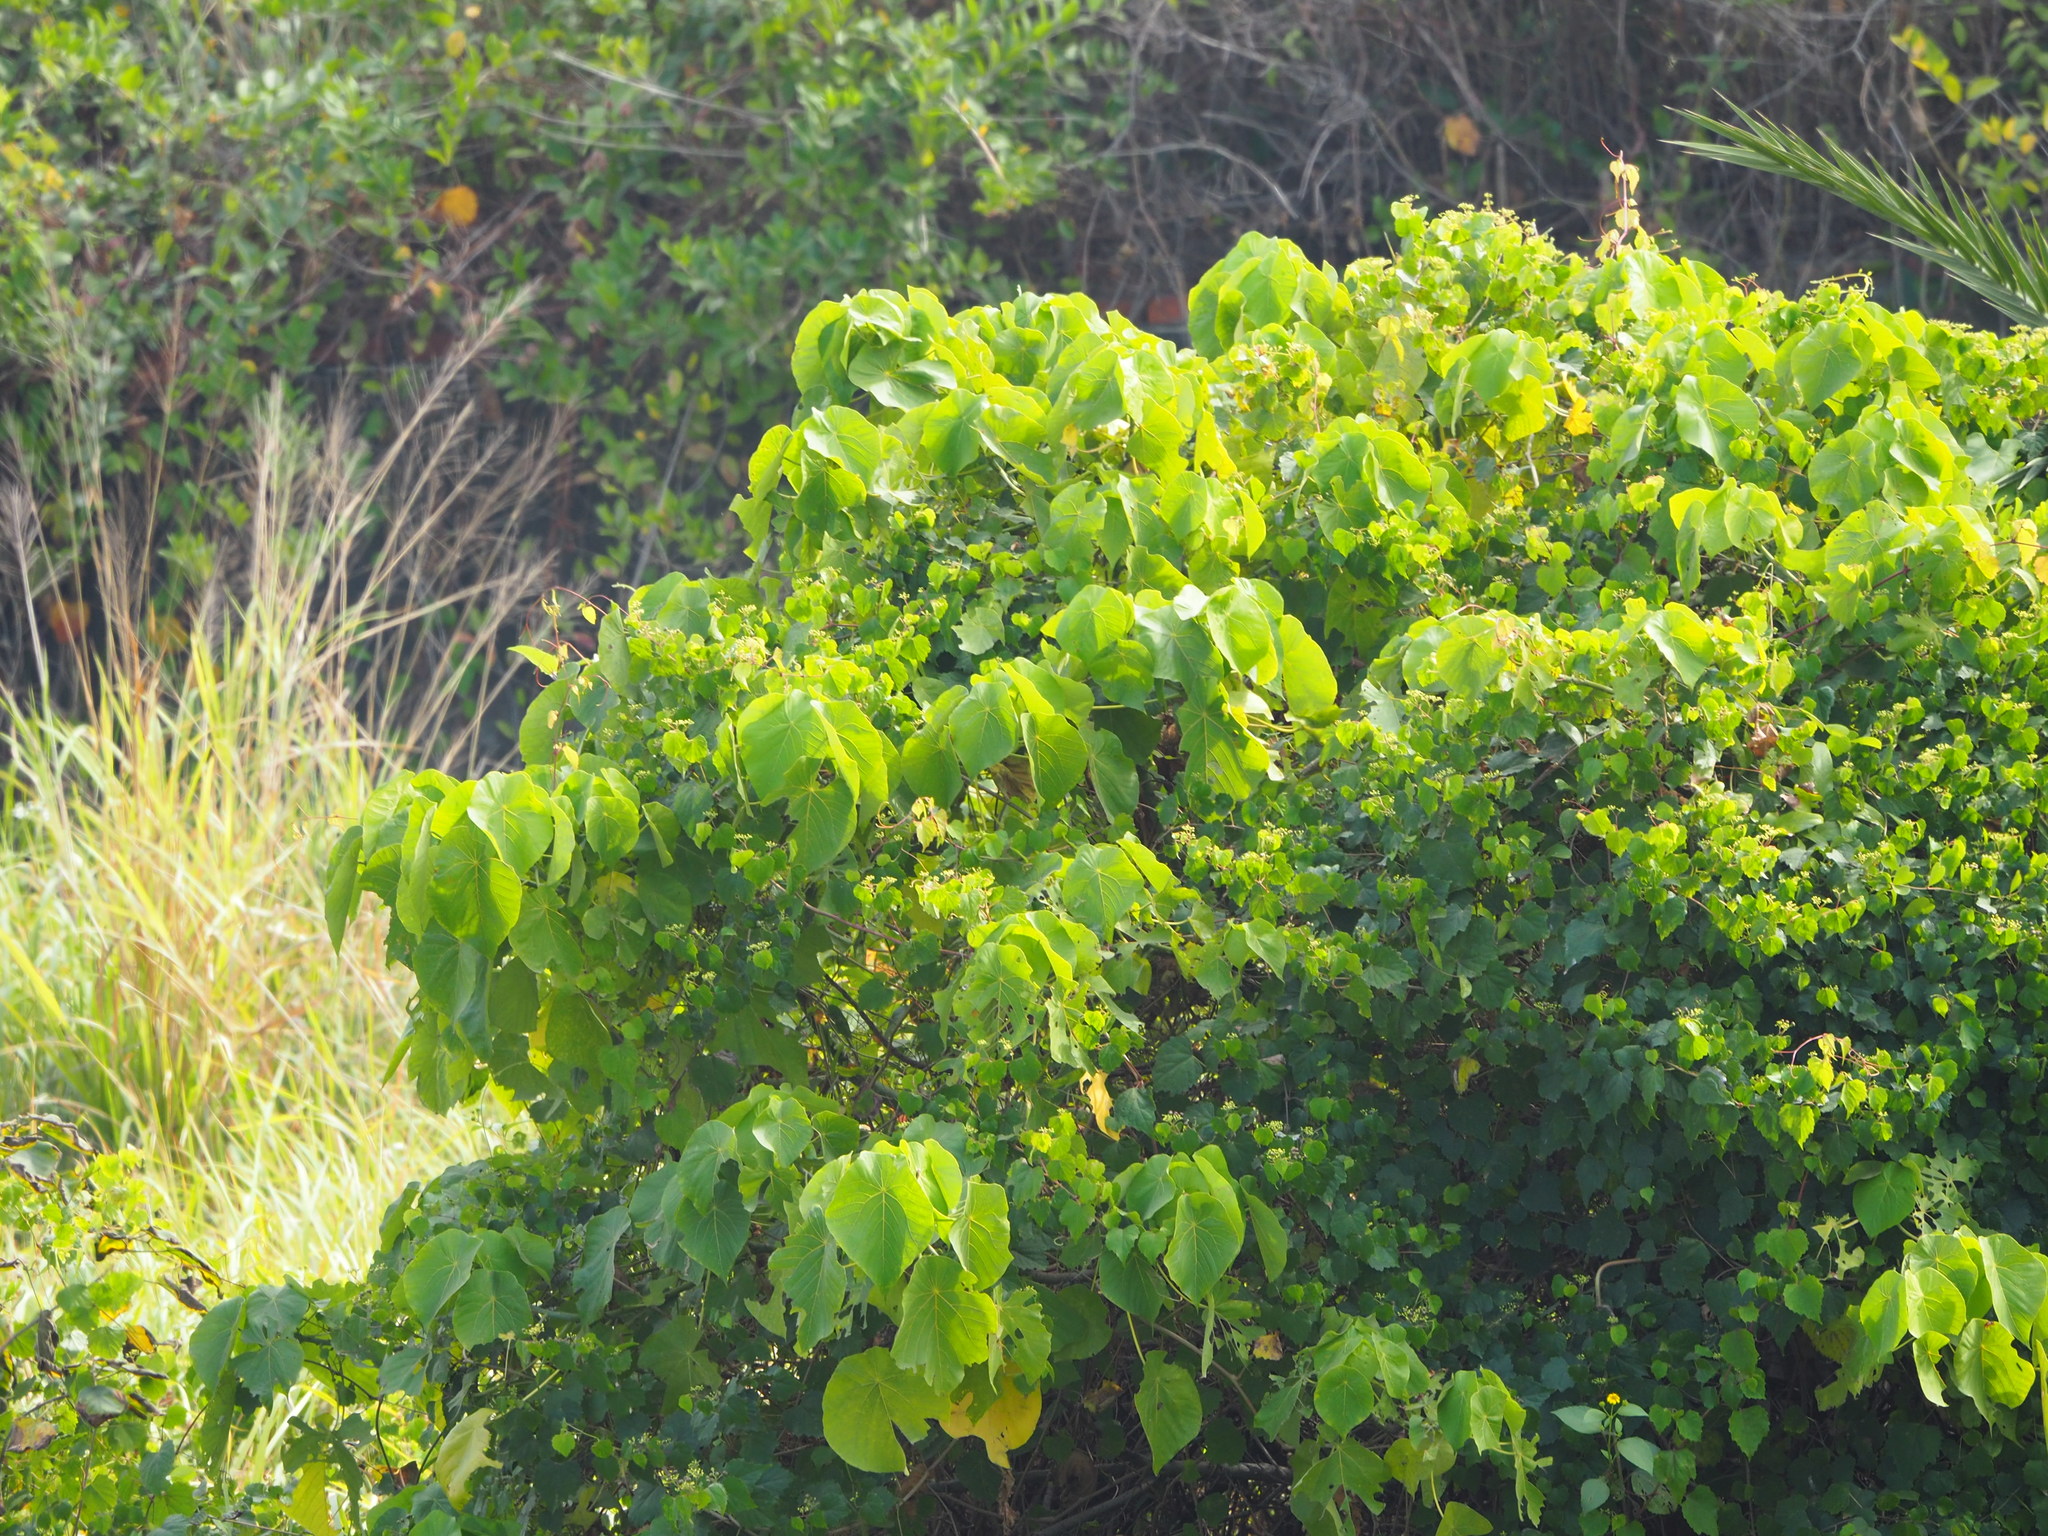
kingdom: Plantae
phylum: Tracheophyta
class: Magnoliopsida
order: Malpighiales
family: Euphorbiaceae
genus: Macaranga
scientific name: Macaranga tanarius
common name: Parasol leaf tree
